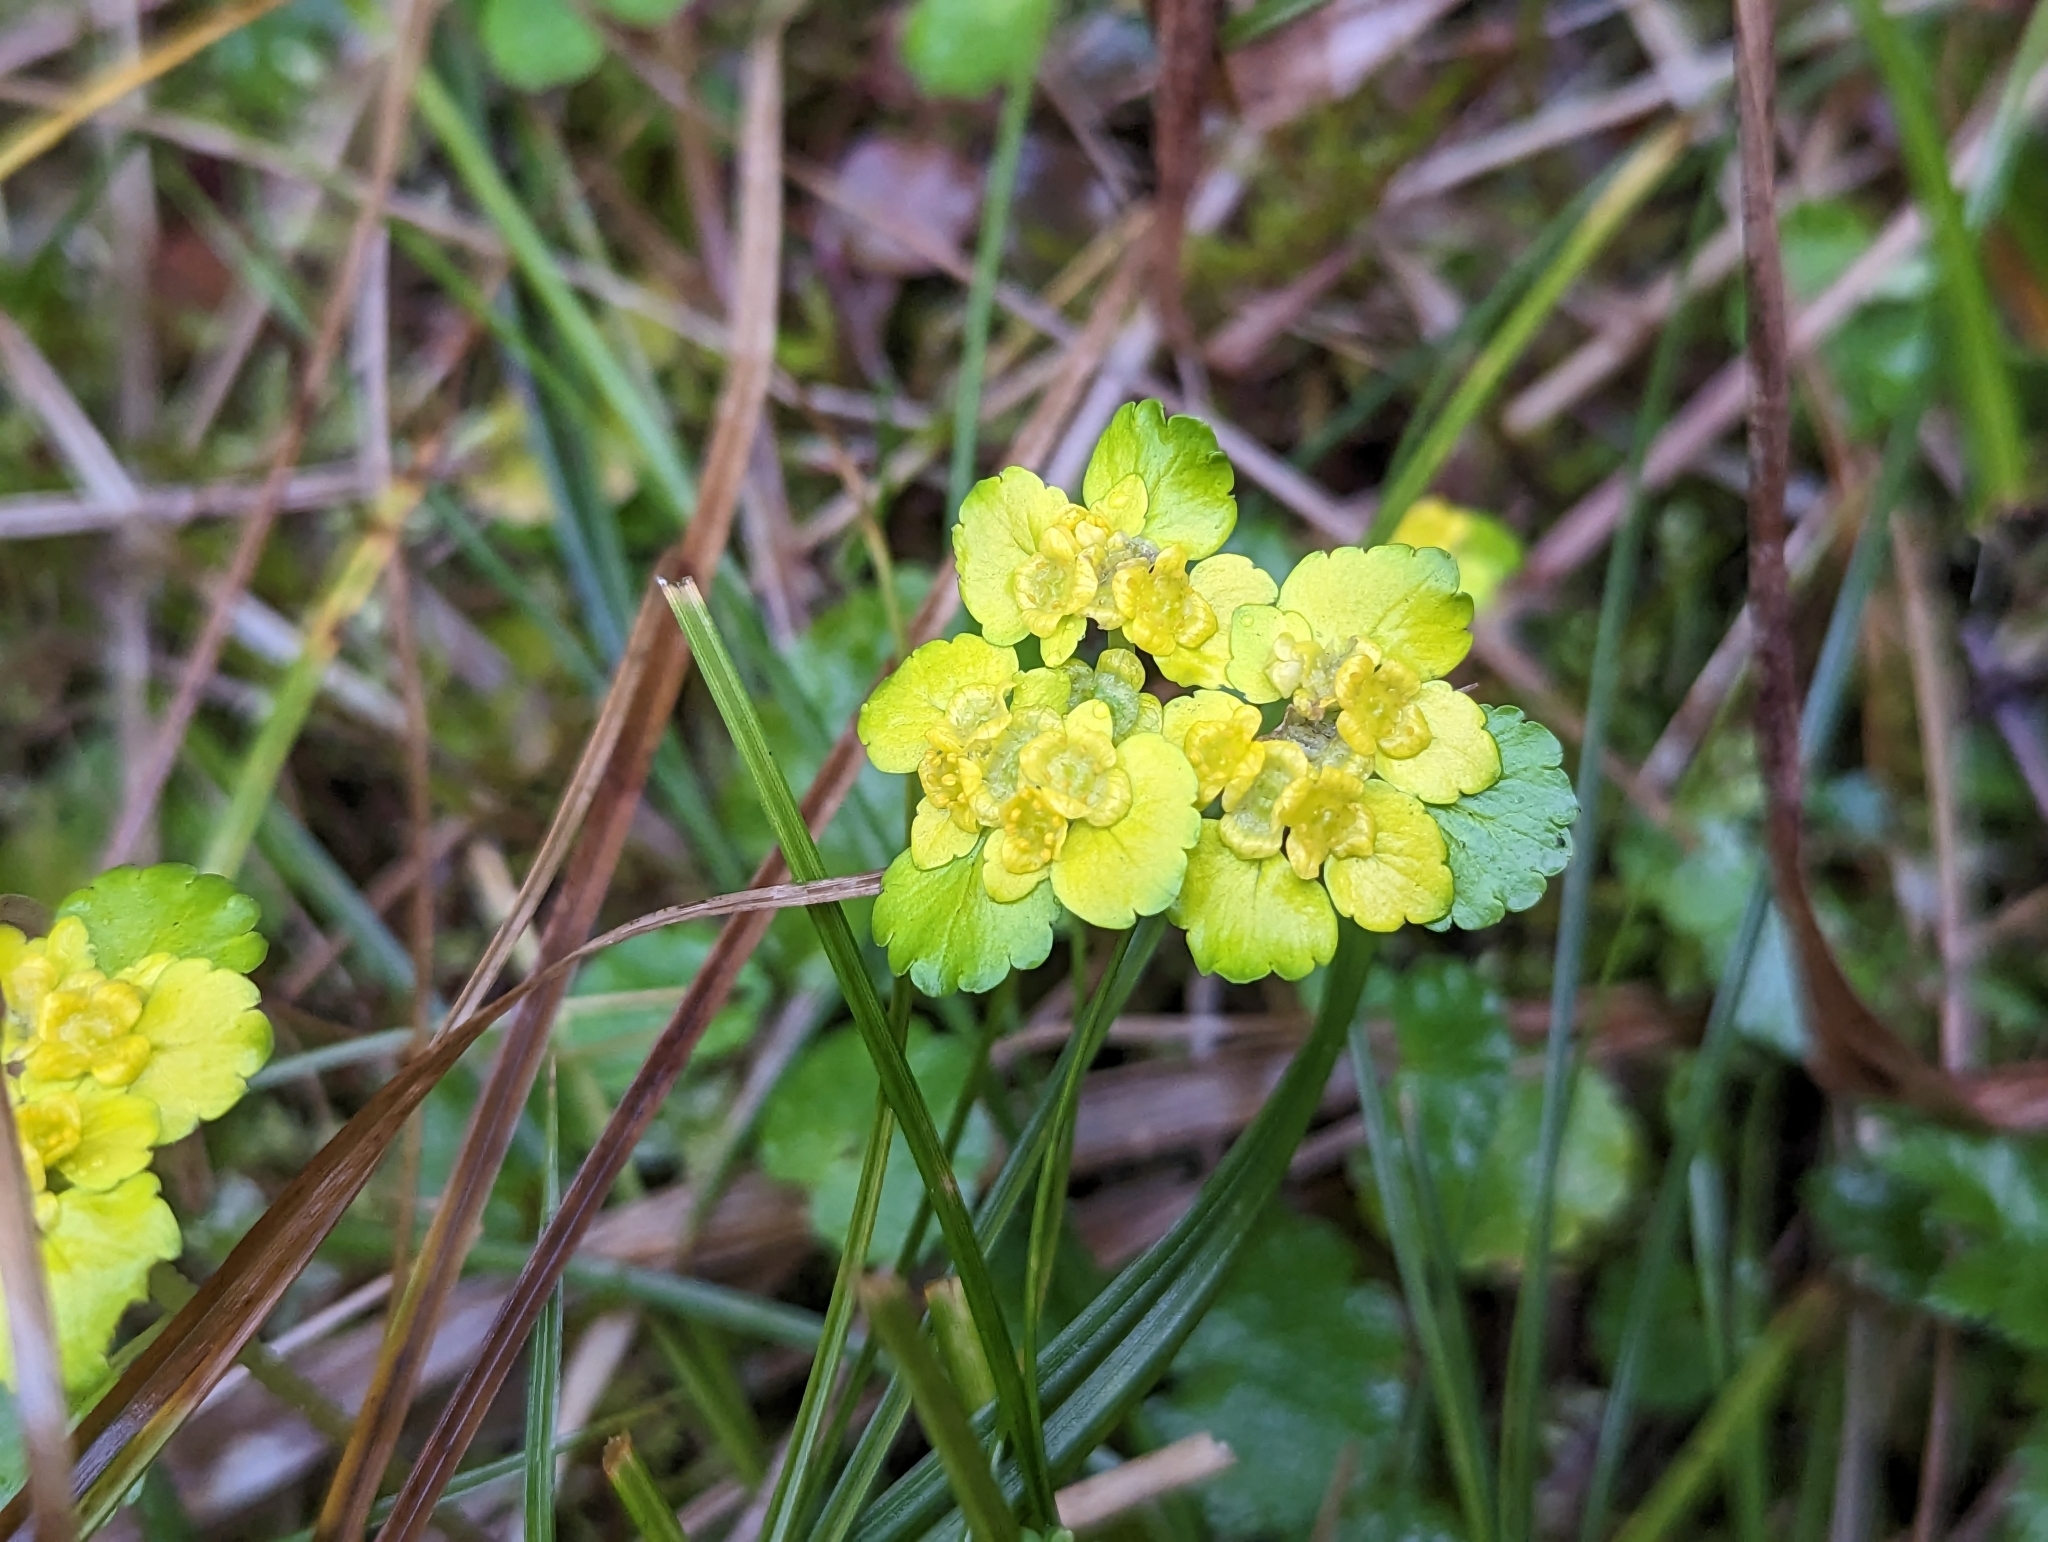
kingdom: Plantae
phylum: Tracheophyta
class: Magnoliopsida
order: Saxifragales
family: Saxifragaceae
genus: Chrysosplenium
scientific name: Chrysosplenium alternifolium
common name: Alternate-leaved golden-saxifrage
